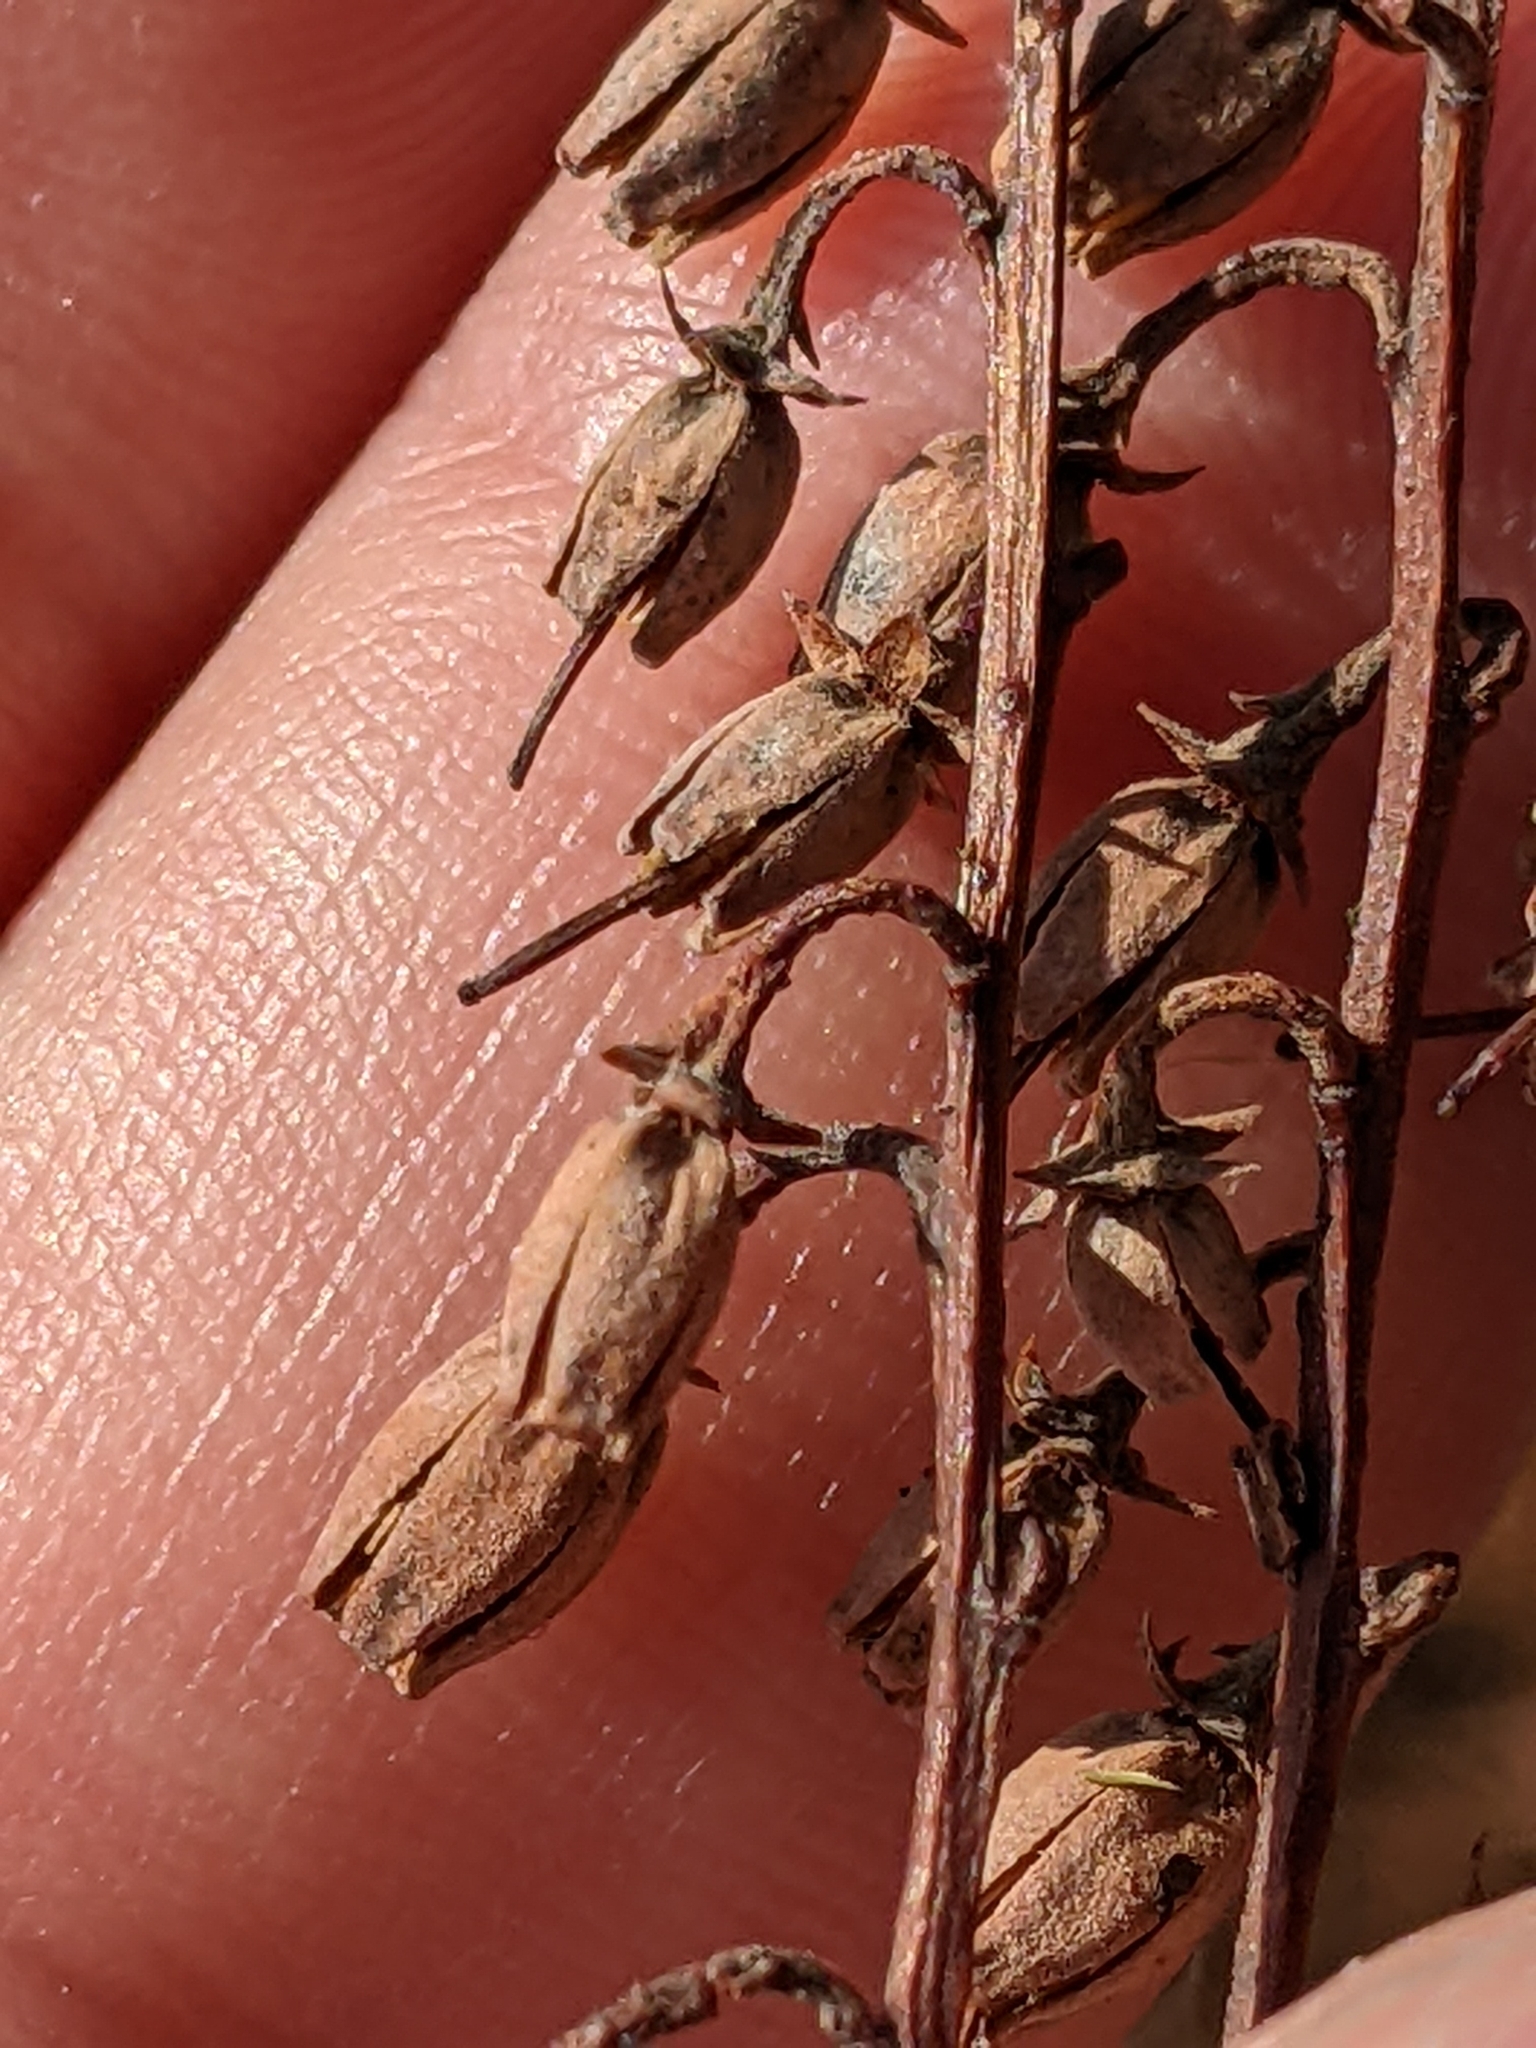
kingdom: Plantae
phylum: Tracheophyta
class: Magnoliopsida
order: Ericales
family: Ericaceae
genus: Oxydendrum
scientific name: Oxydendrum arboreum
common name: Sourwood
